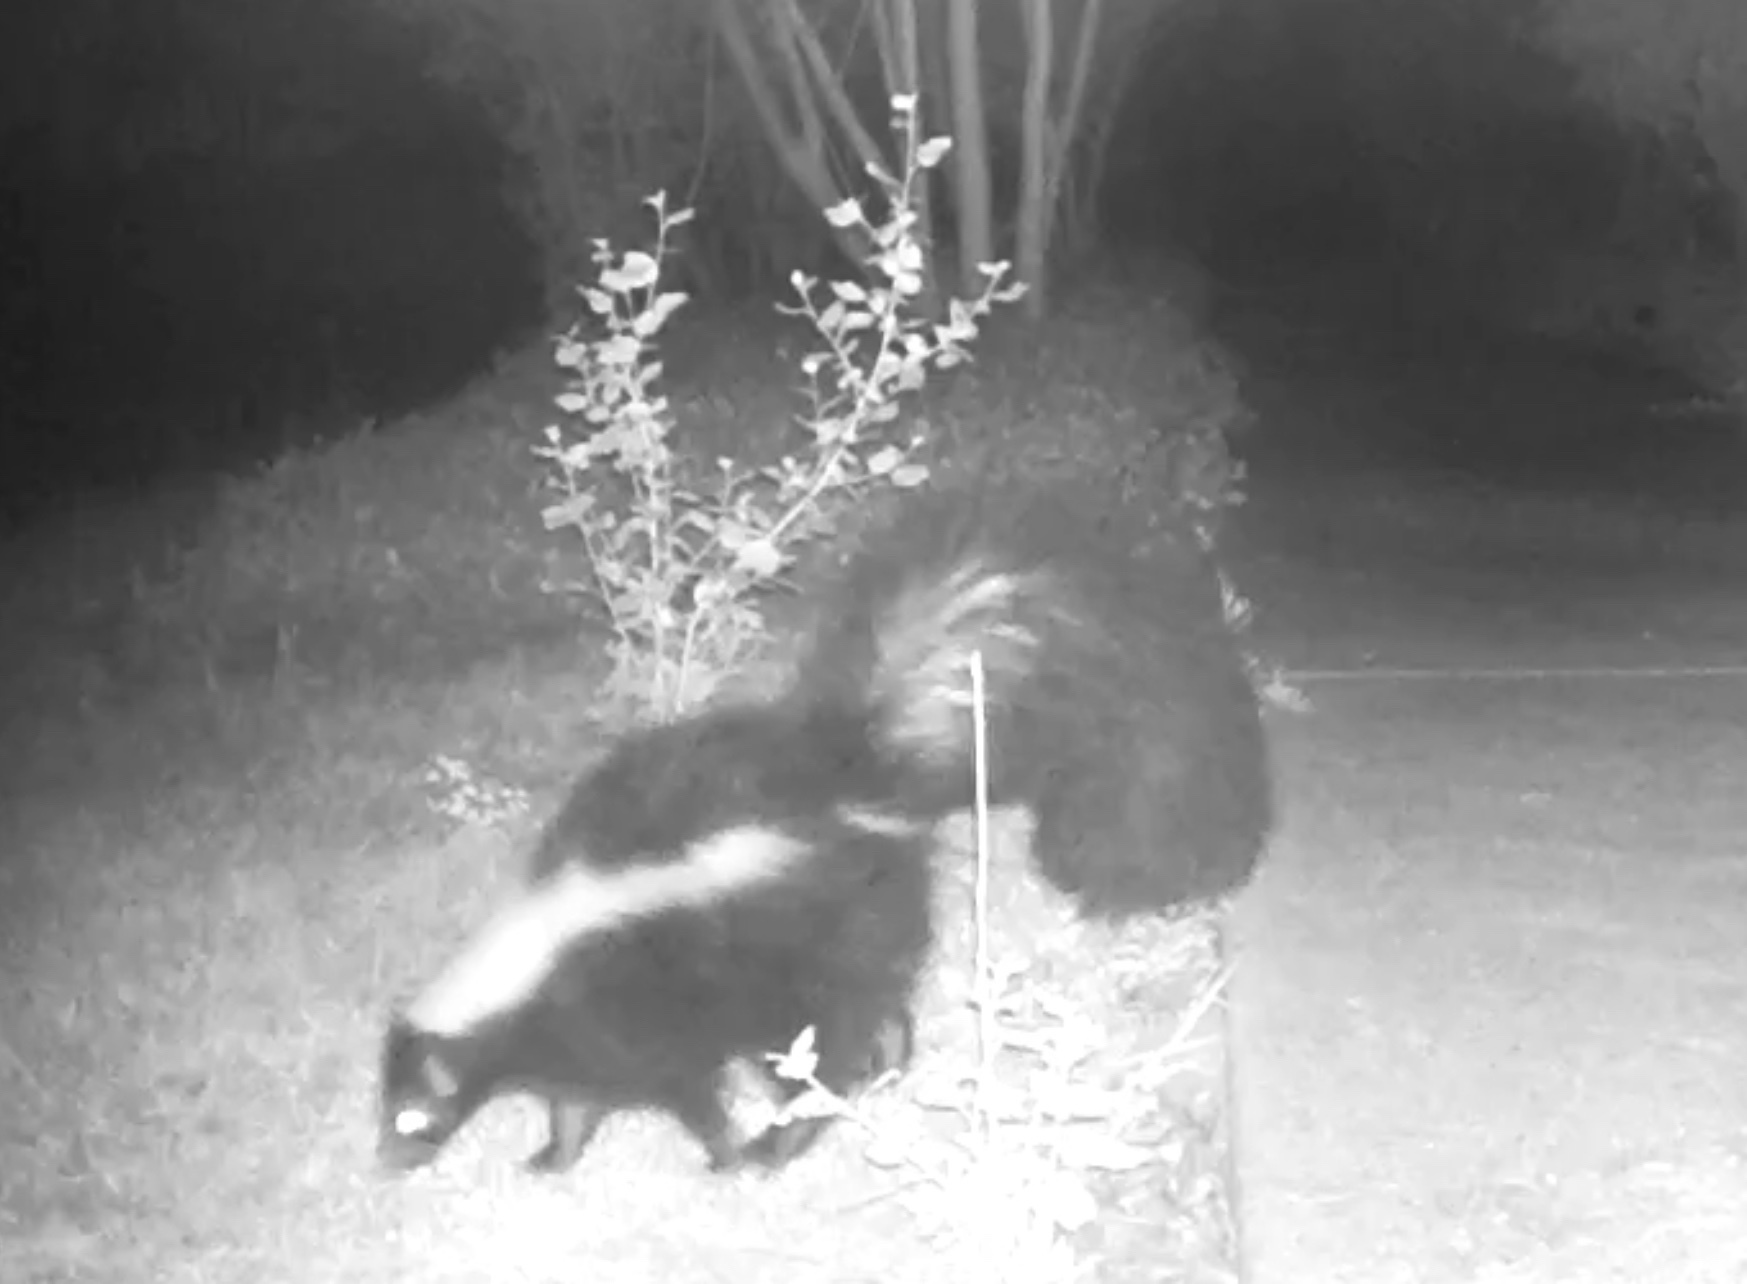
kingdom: Animalia
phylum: Chordata
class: Mammalia
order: Carnivora
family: Mephitidae
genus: Mephitis
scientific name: Mephitis mephitis
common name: Striped skunk
